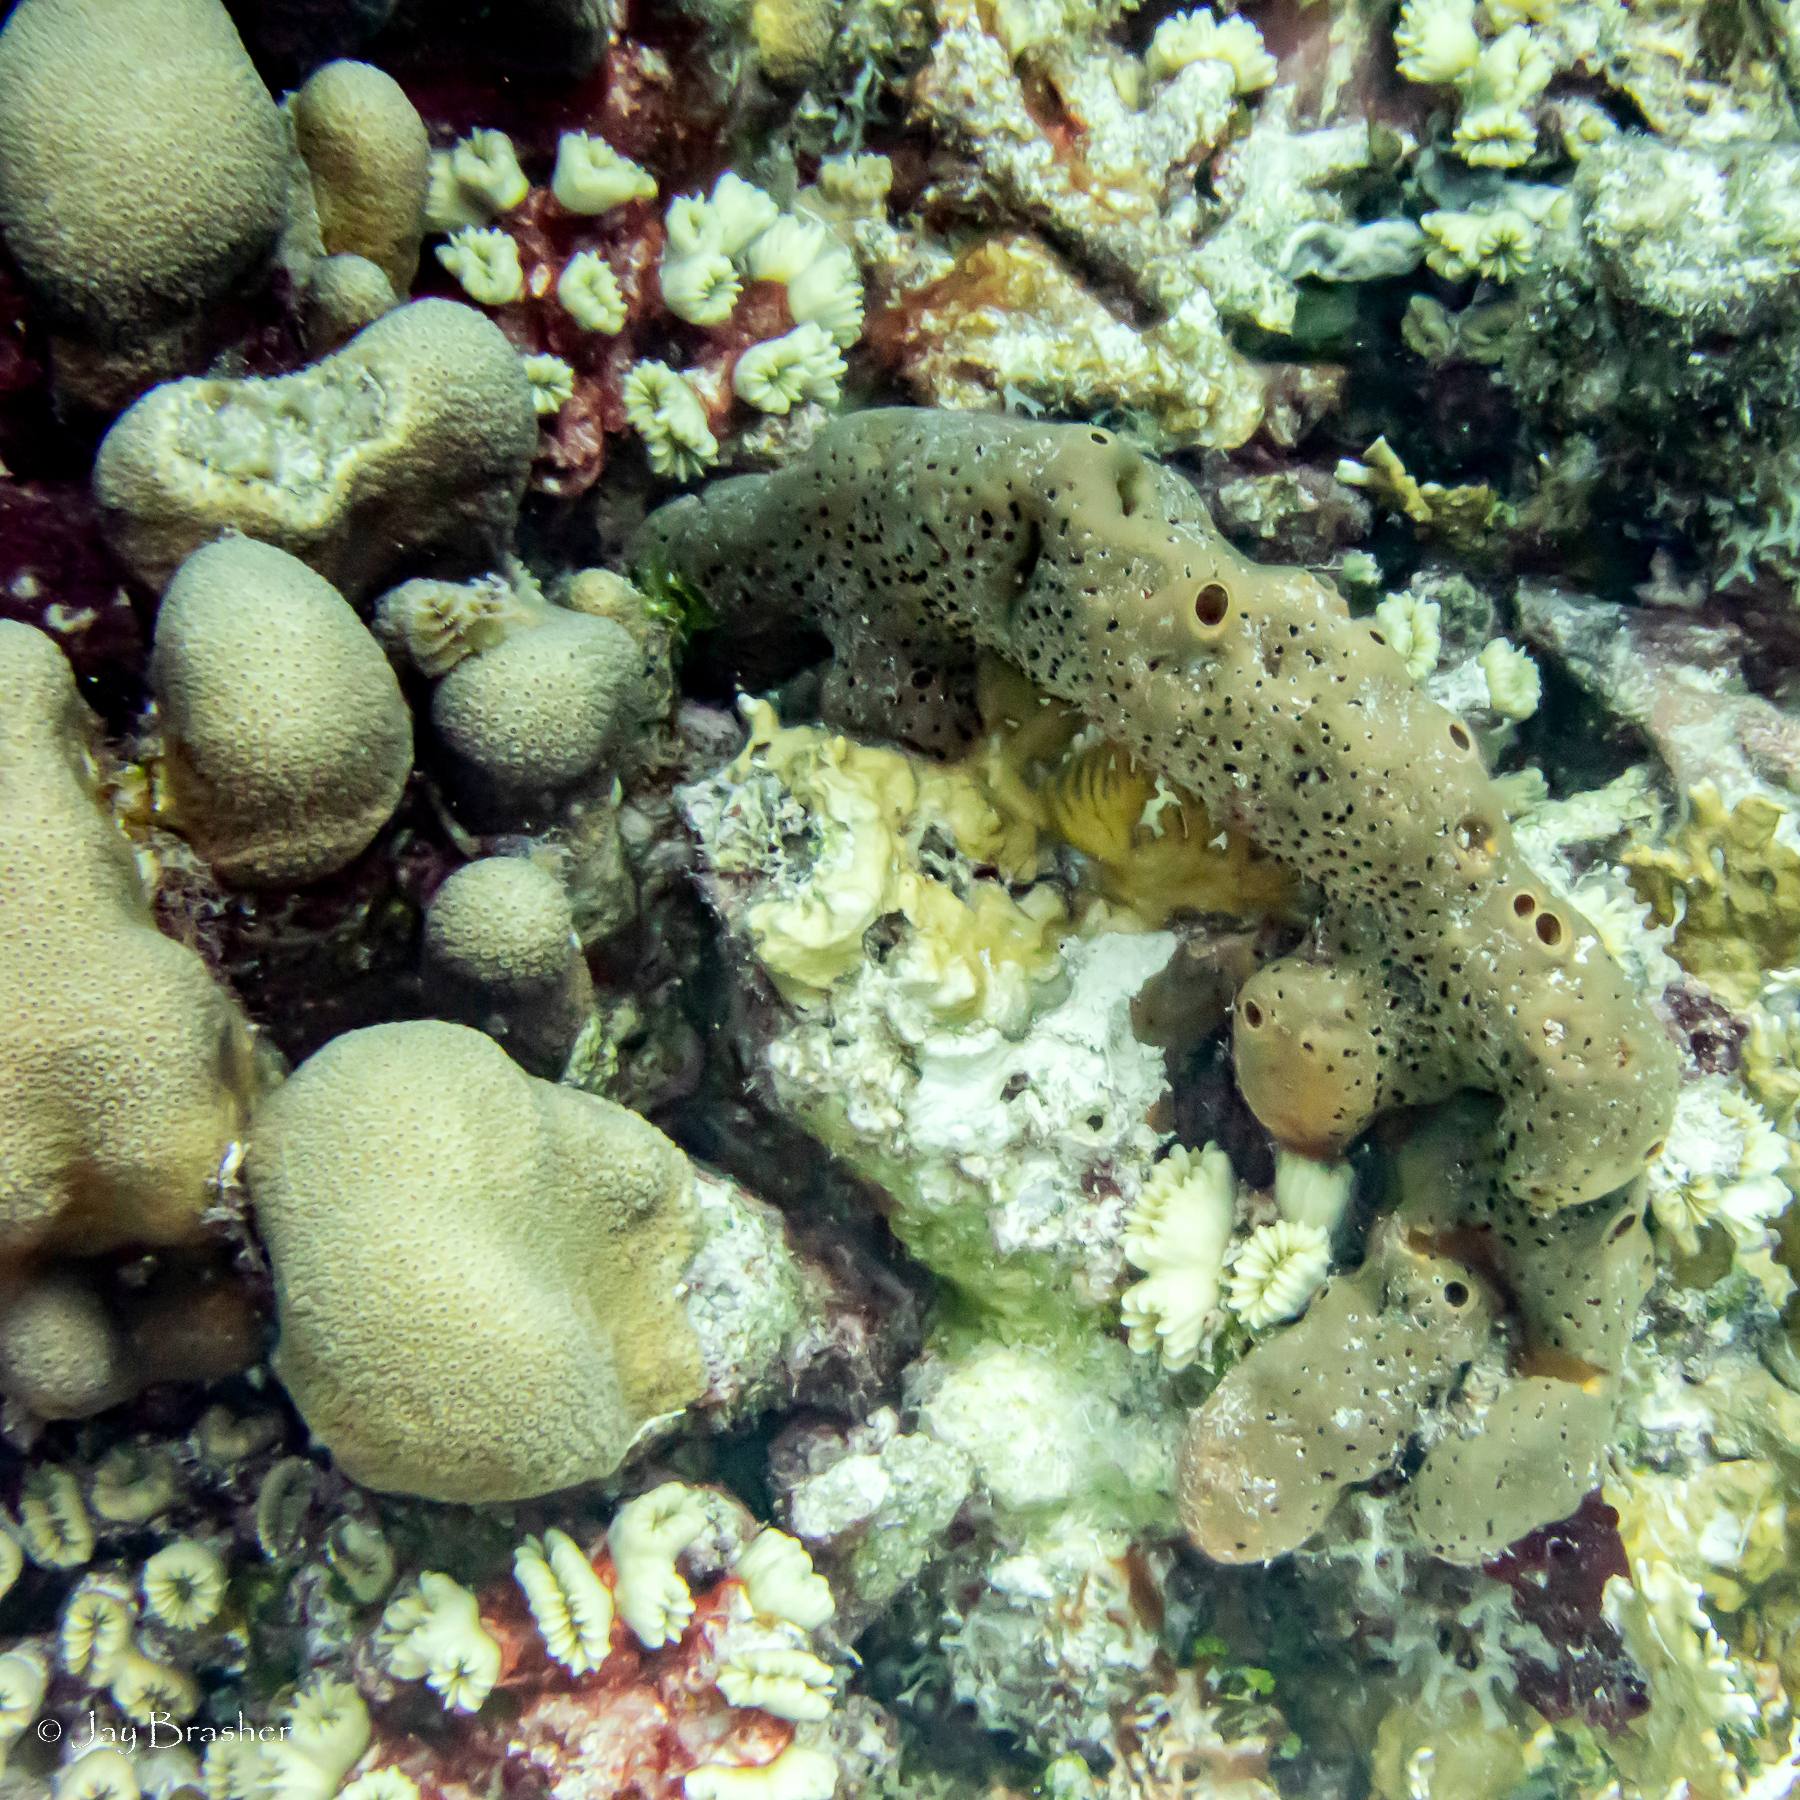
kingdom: Animalia
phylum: Cnidaria
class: Anthozoa
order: Scleractinia
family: Merulinidae
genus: Orbicella
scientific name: Orbicella annularis
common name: Boulder star coral
